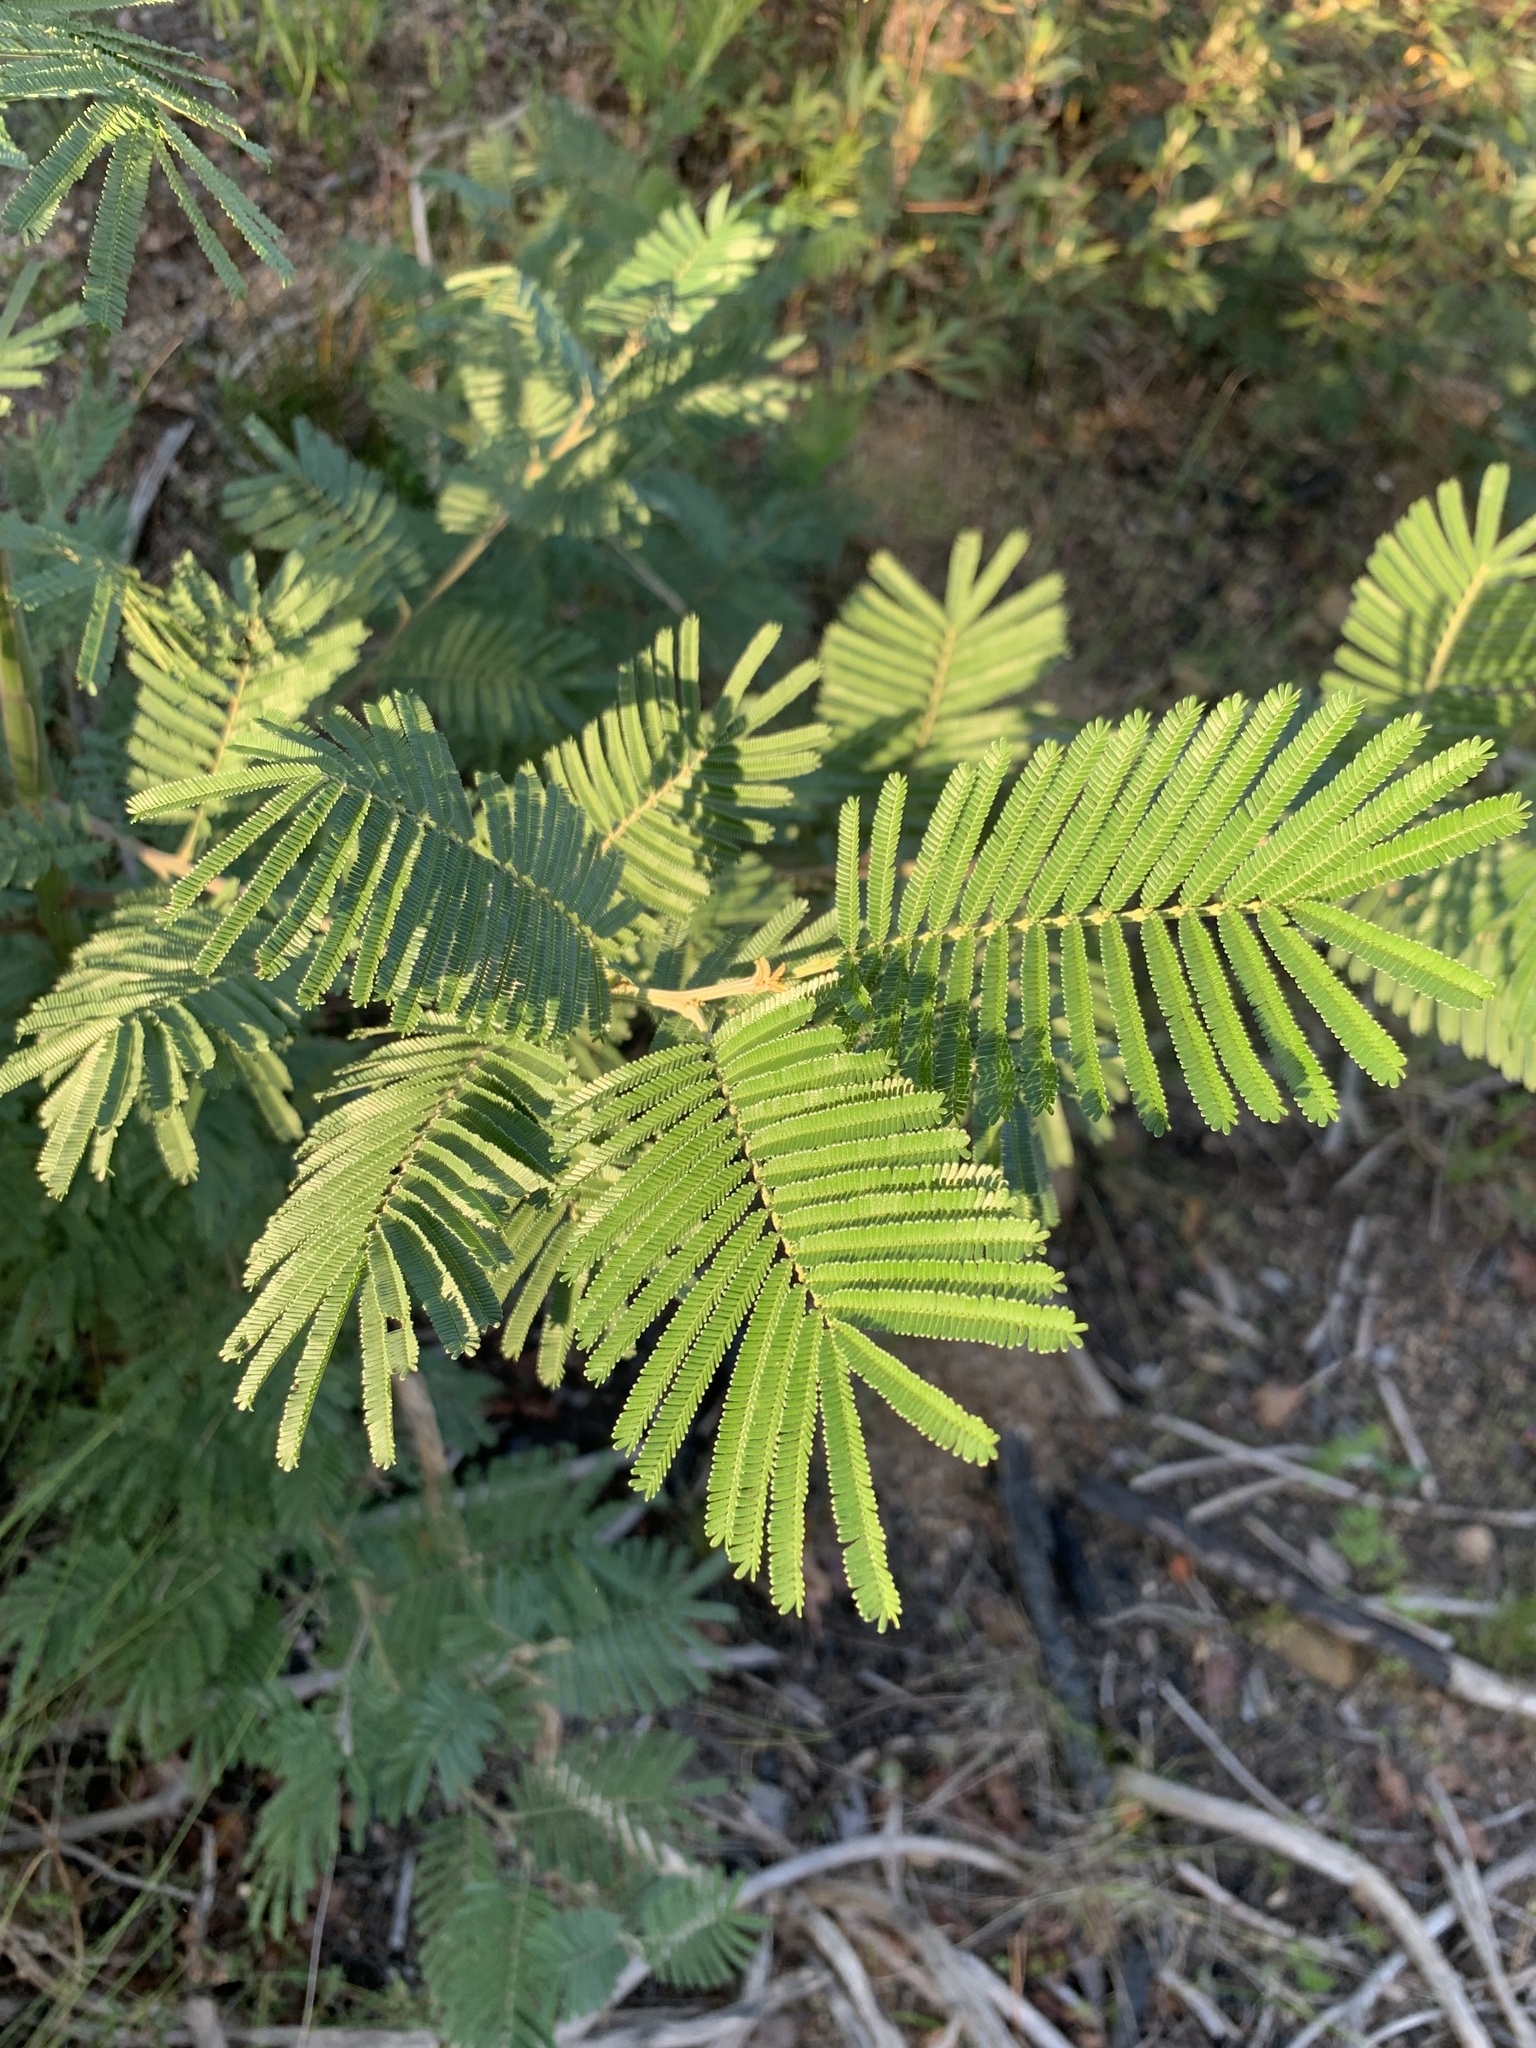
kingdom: Plantae
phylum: Tracheophyta
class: Magnoliopsida
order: Fabales
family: Fabaceae
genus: Acacia
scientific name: Acacia mearnsii
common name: Black wattle
